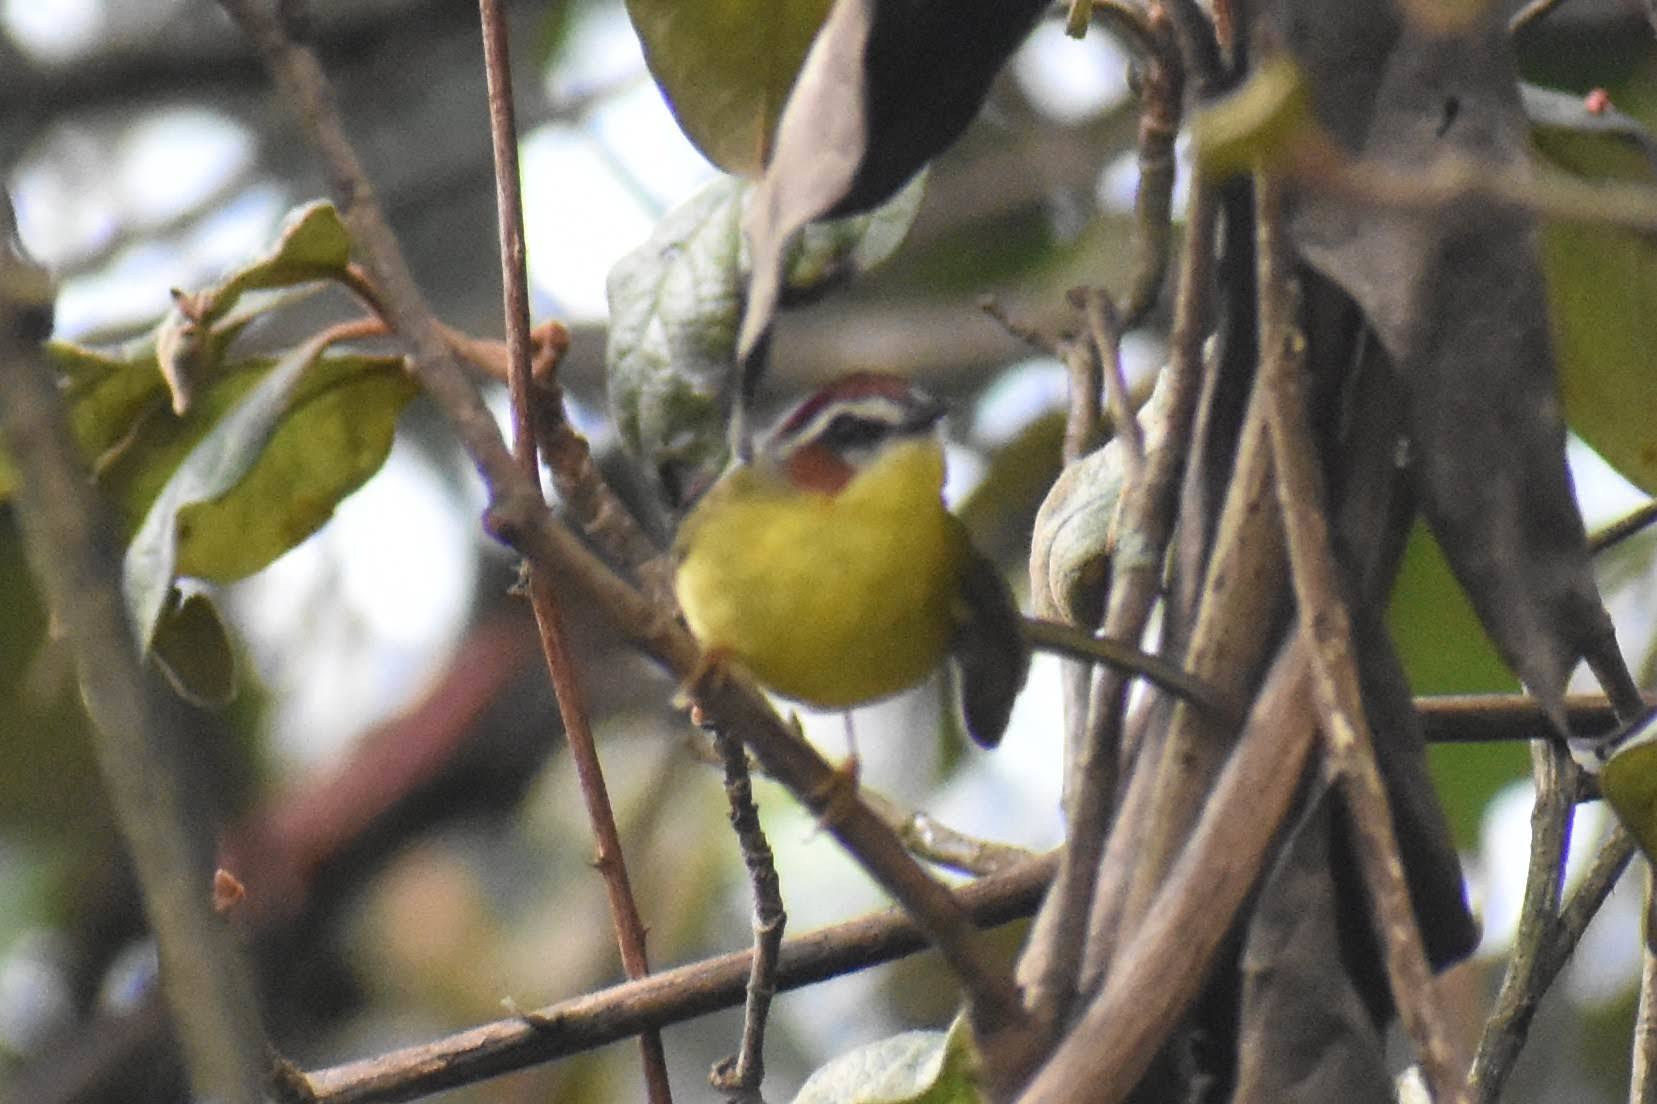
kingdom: Animalia
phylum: Chordata
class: Aves
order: Passeriformes
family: Parulidae
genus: Basileuterus
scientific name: Basileuterus rufifrons
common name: Rufous-capped warbler
